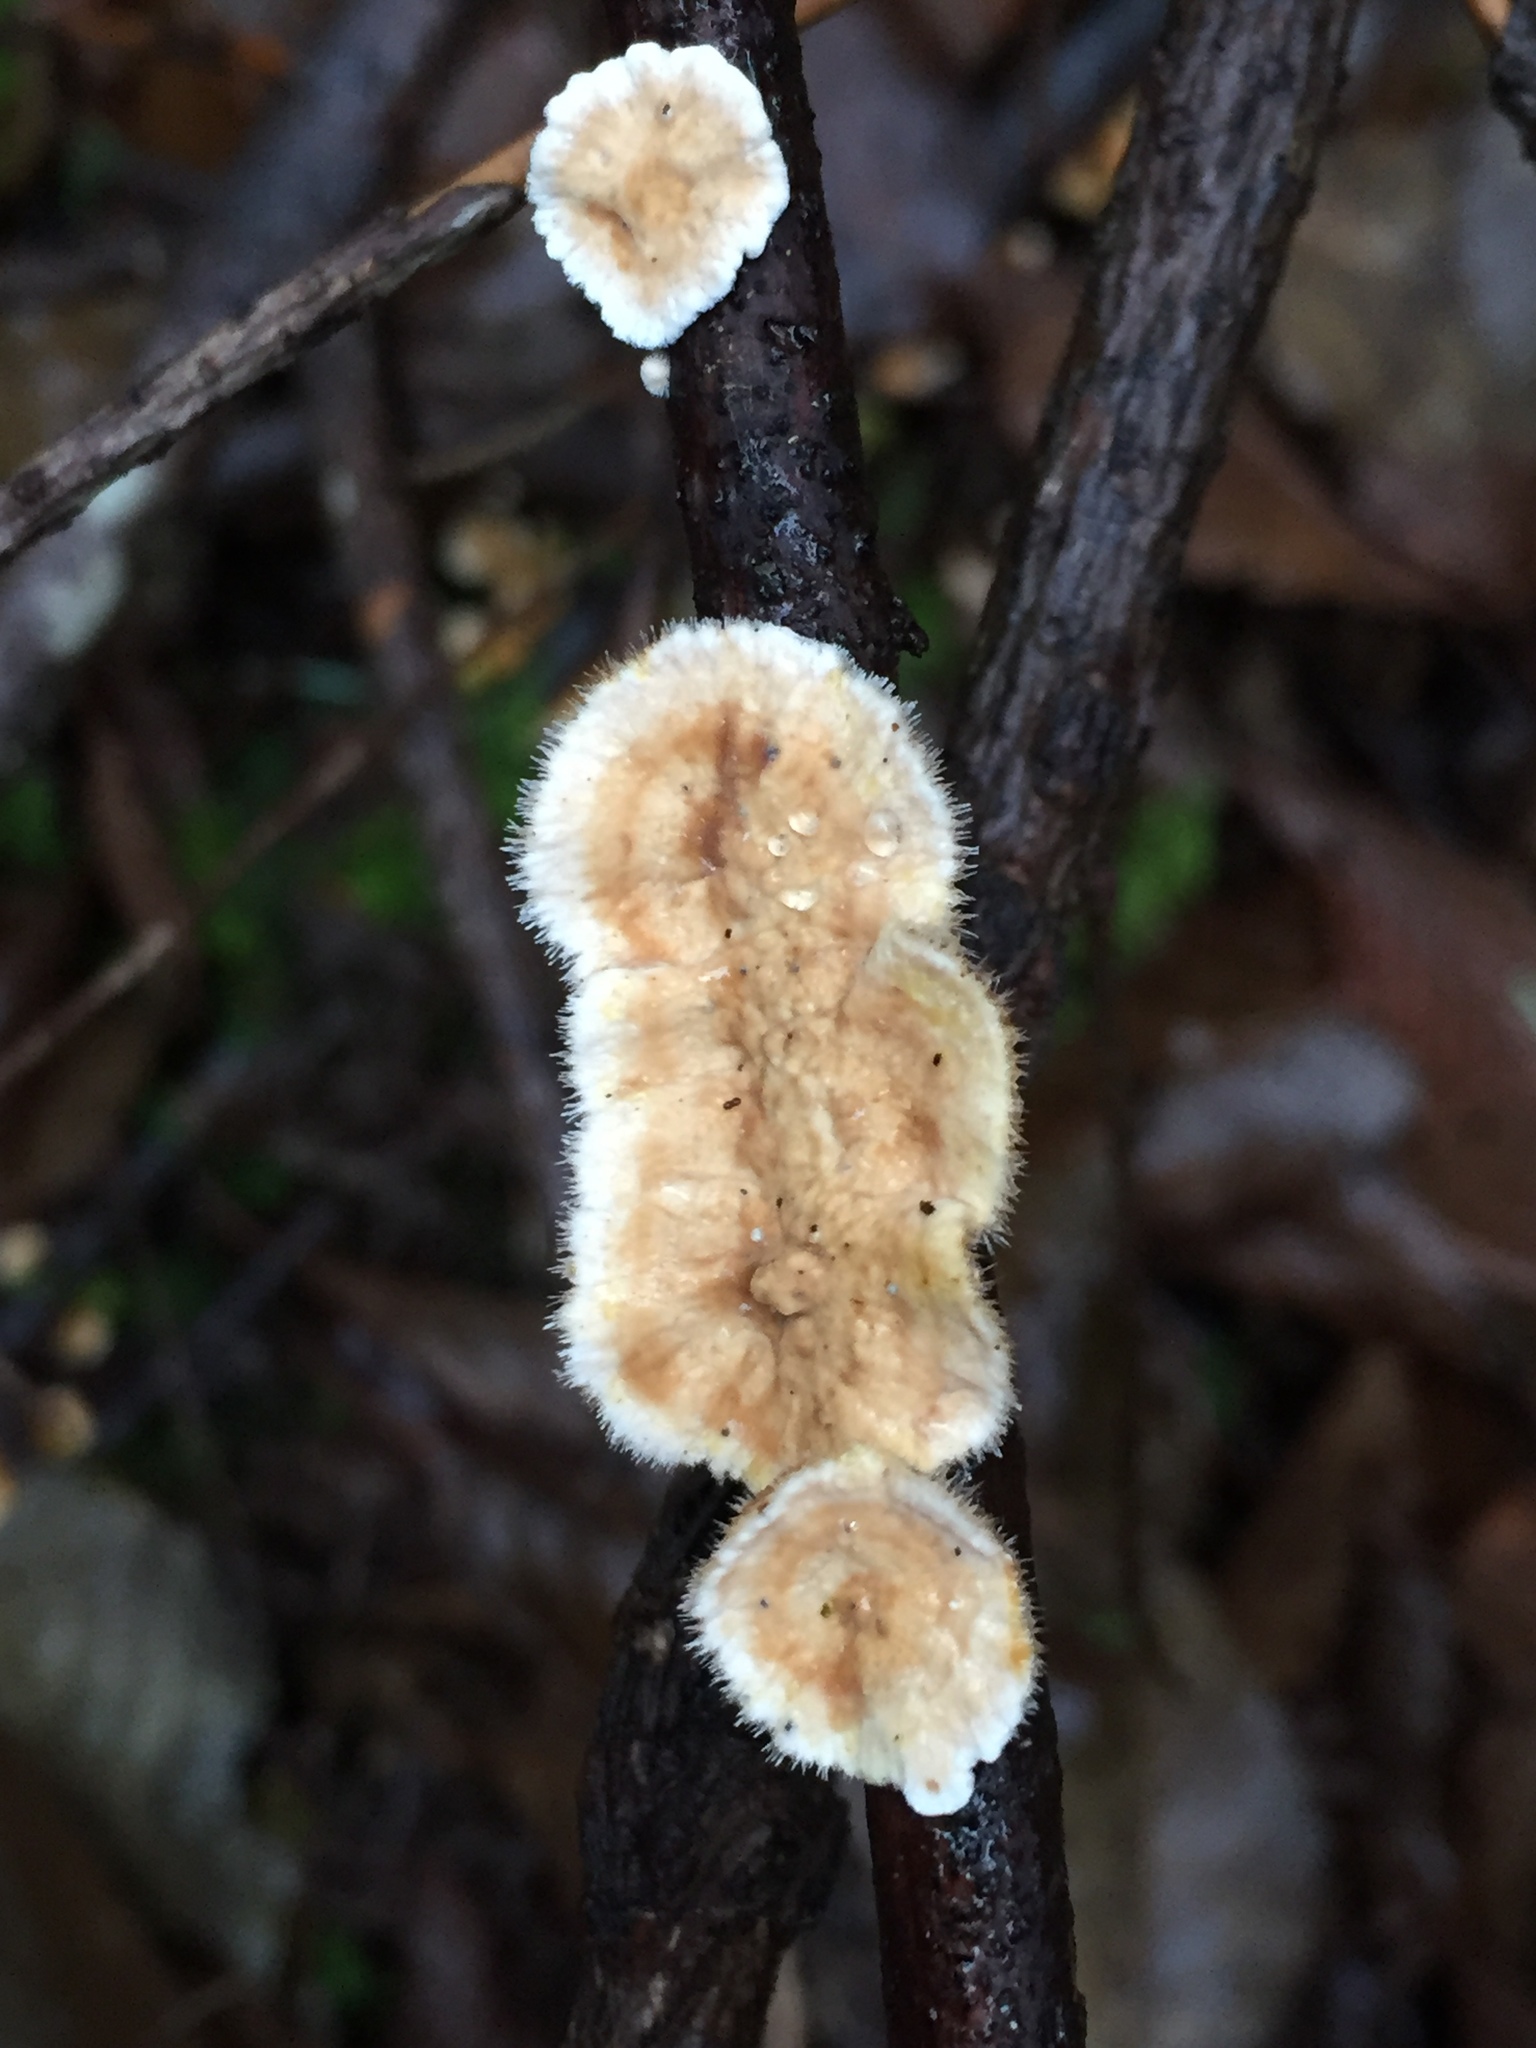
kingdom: Fungi
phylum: Basidiomycota
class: Agaricomycetes
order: Russulales
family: Stereaceae
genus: Stereum
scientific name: Stereum ochraceoflavum
